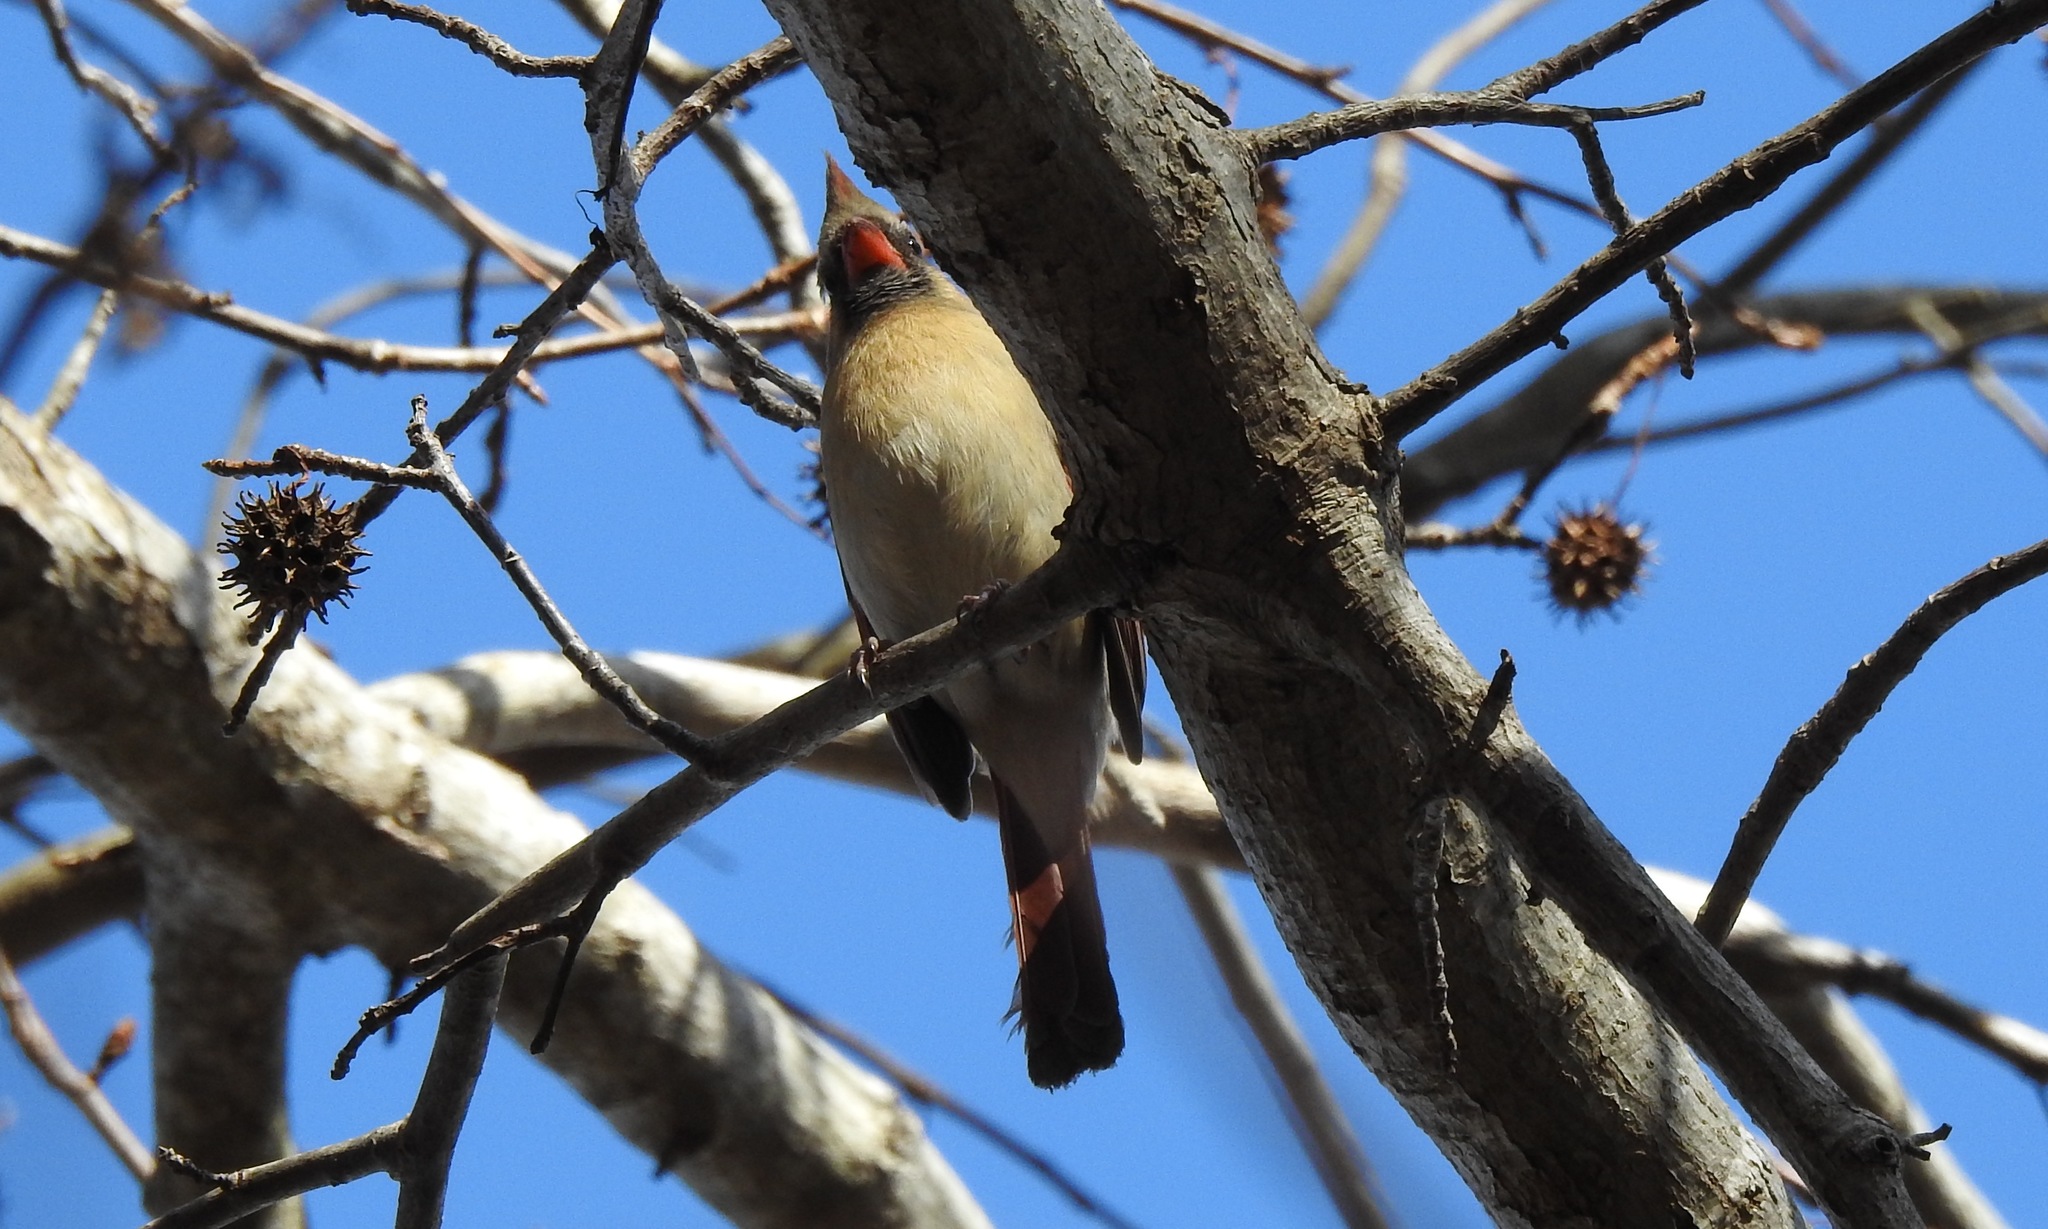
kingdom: Animalia
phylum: Chordata
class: Aves
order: Passeriformes
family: Cardinalidae
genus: Cardinalis
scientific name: Cardinalis cardinalis
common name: Northern cardinal
